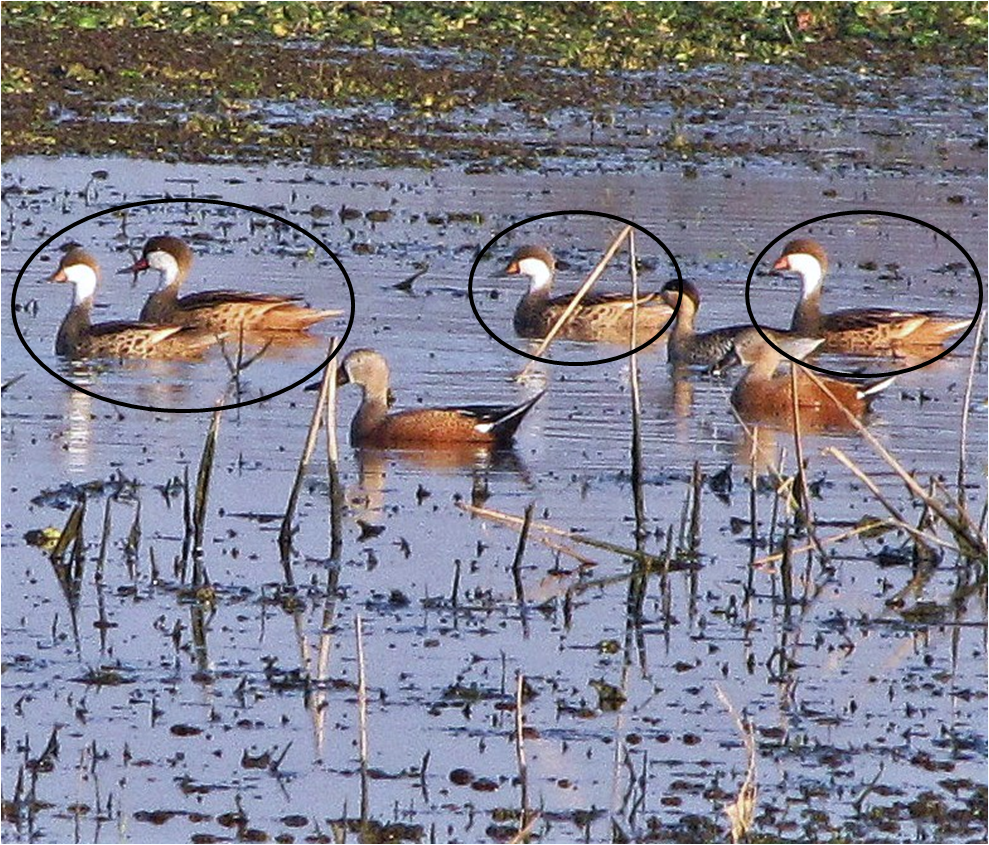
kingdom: Animalia
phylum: Chordata
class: Aves
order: Anseriformes
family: Anatidae
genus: Anas
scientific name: Anas bahamensis
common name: White-cheeked pintail
